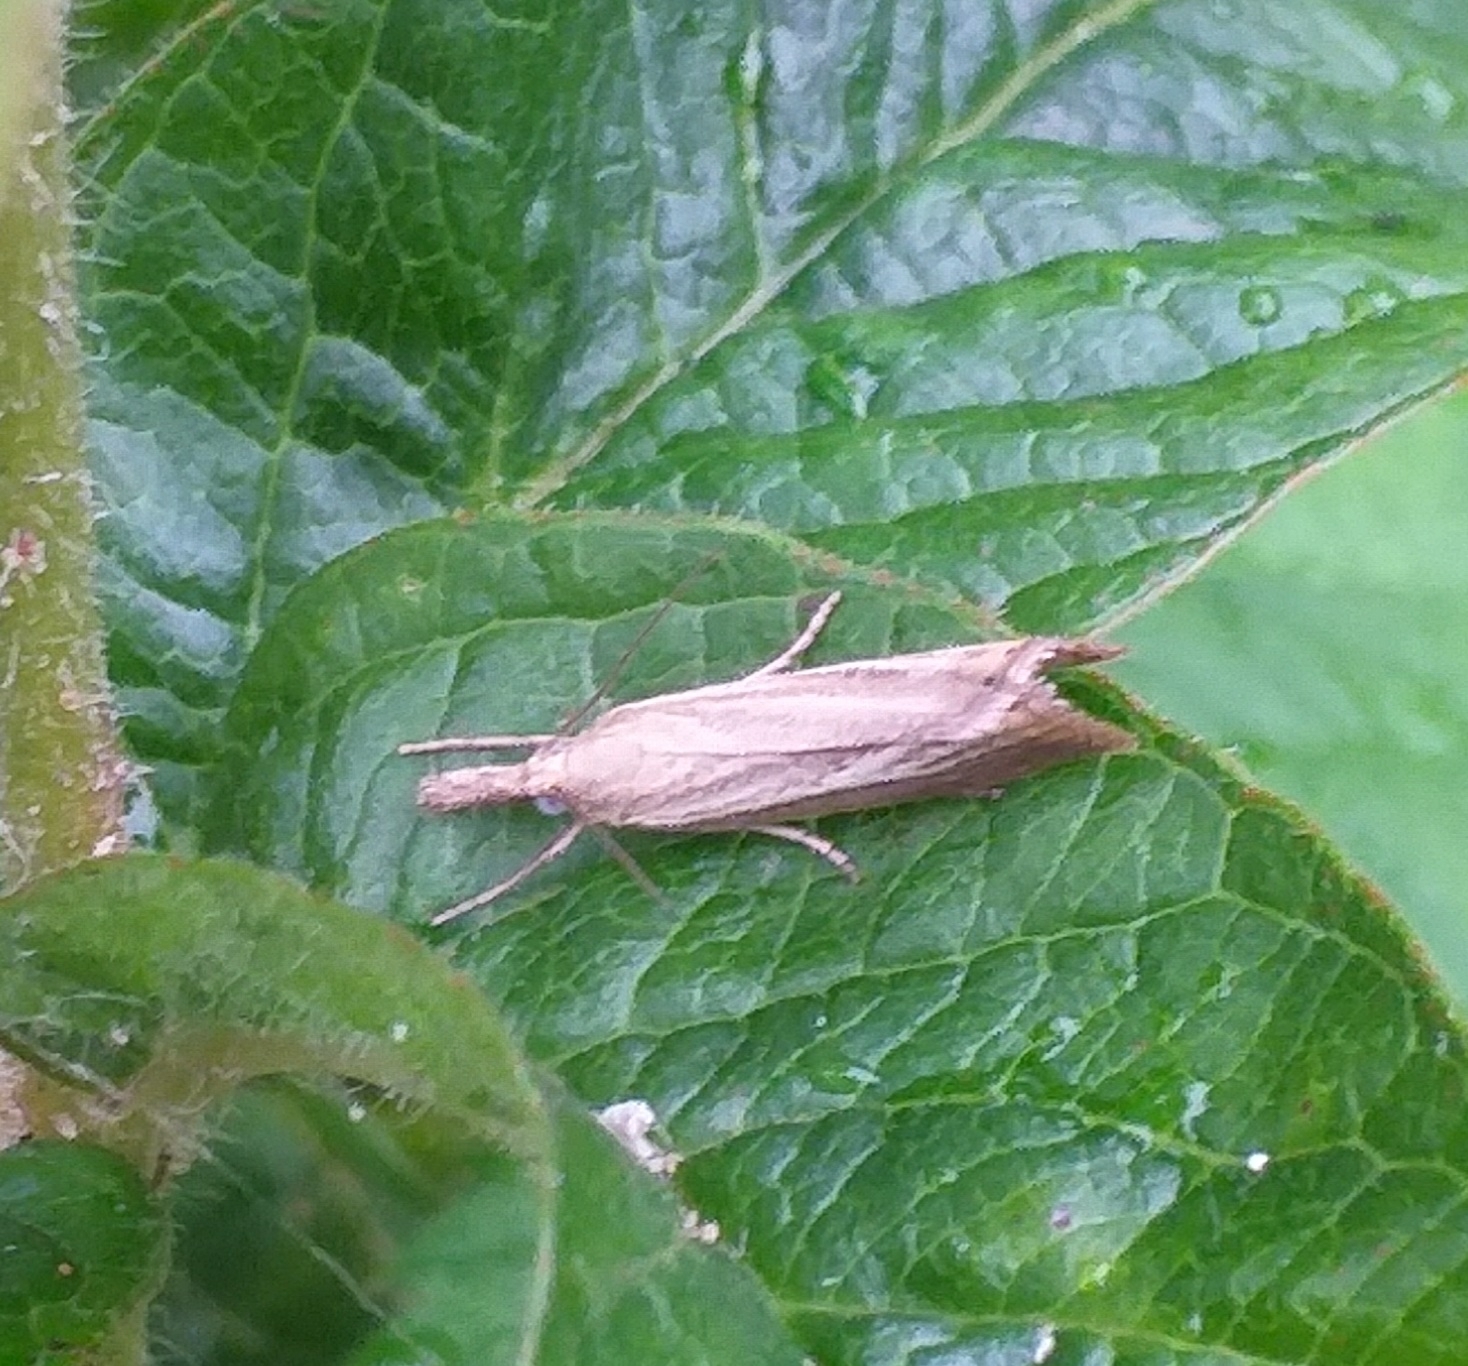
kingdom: Animalia
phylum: Arthropoda
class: Insecta
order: Lepidoptera
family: Crambidae
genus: Chrysoteuchia
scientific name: Chrysoteuchia culmella
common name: Garden grass-veneer
